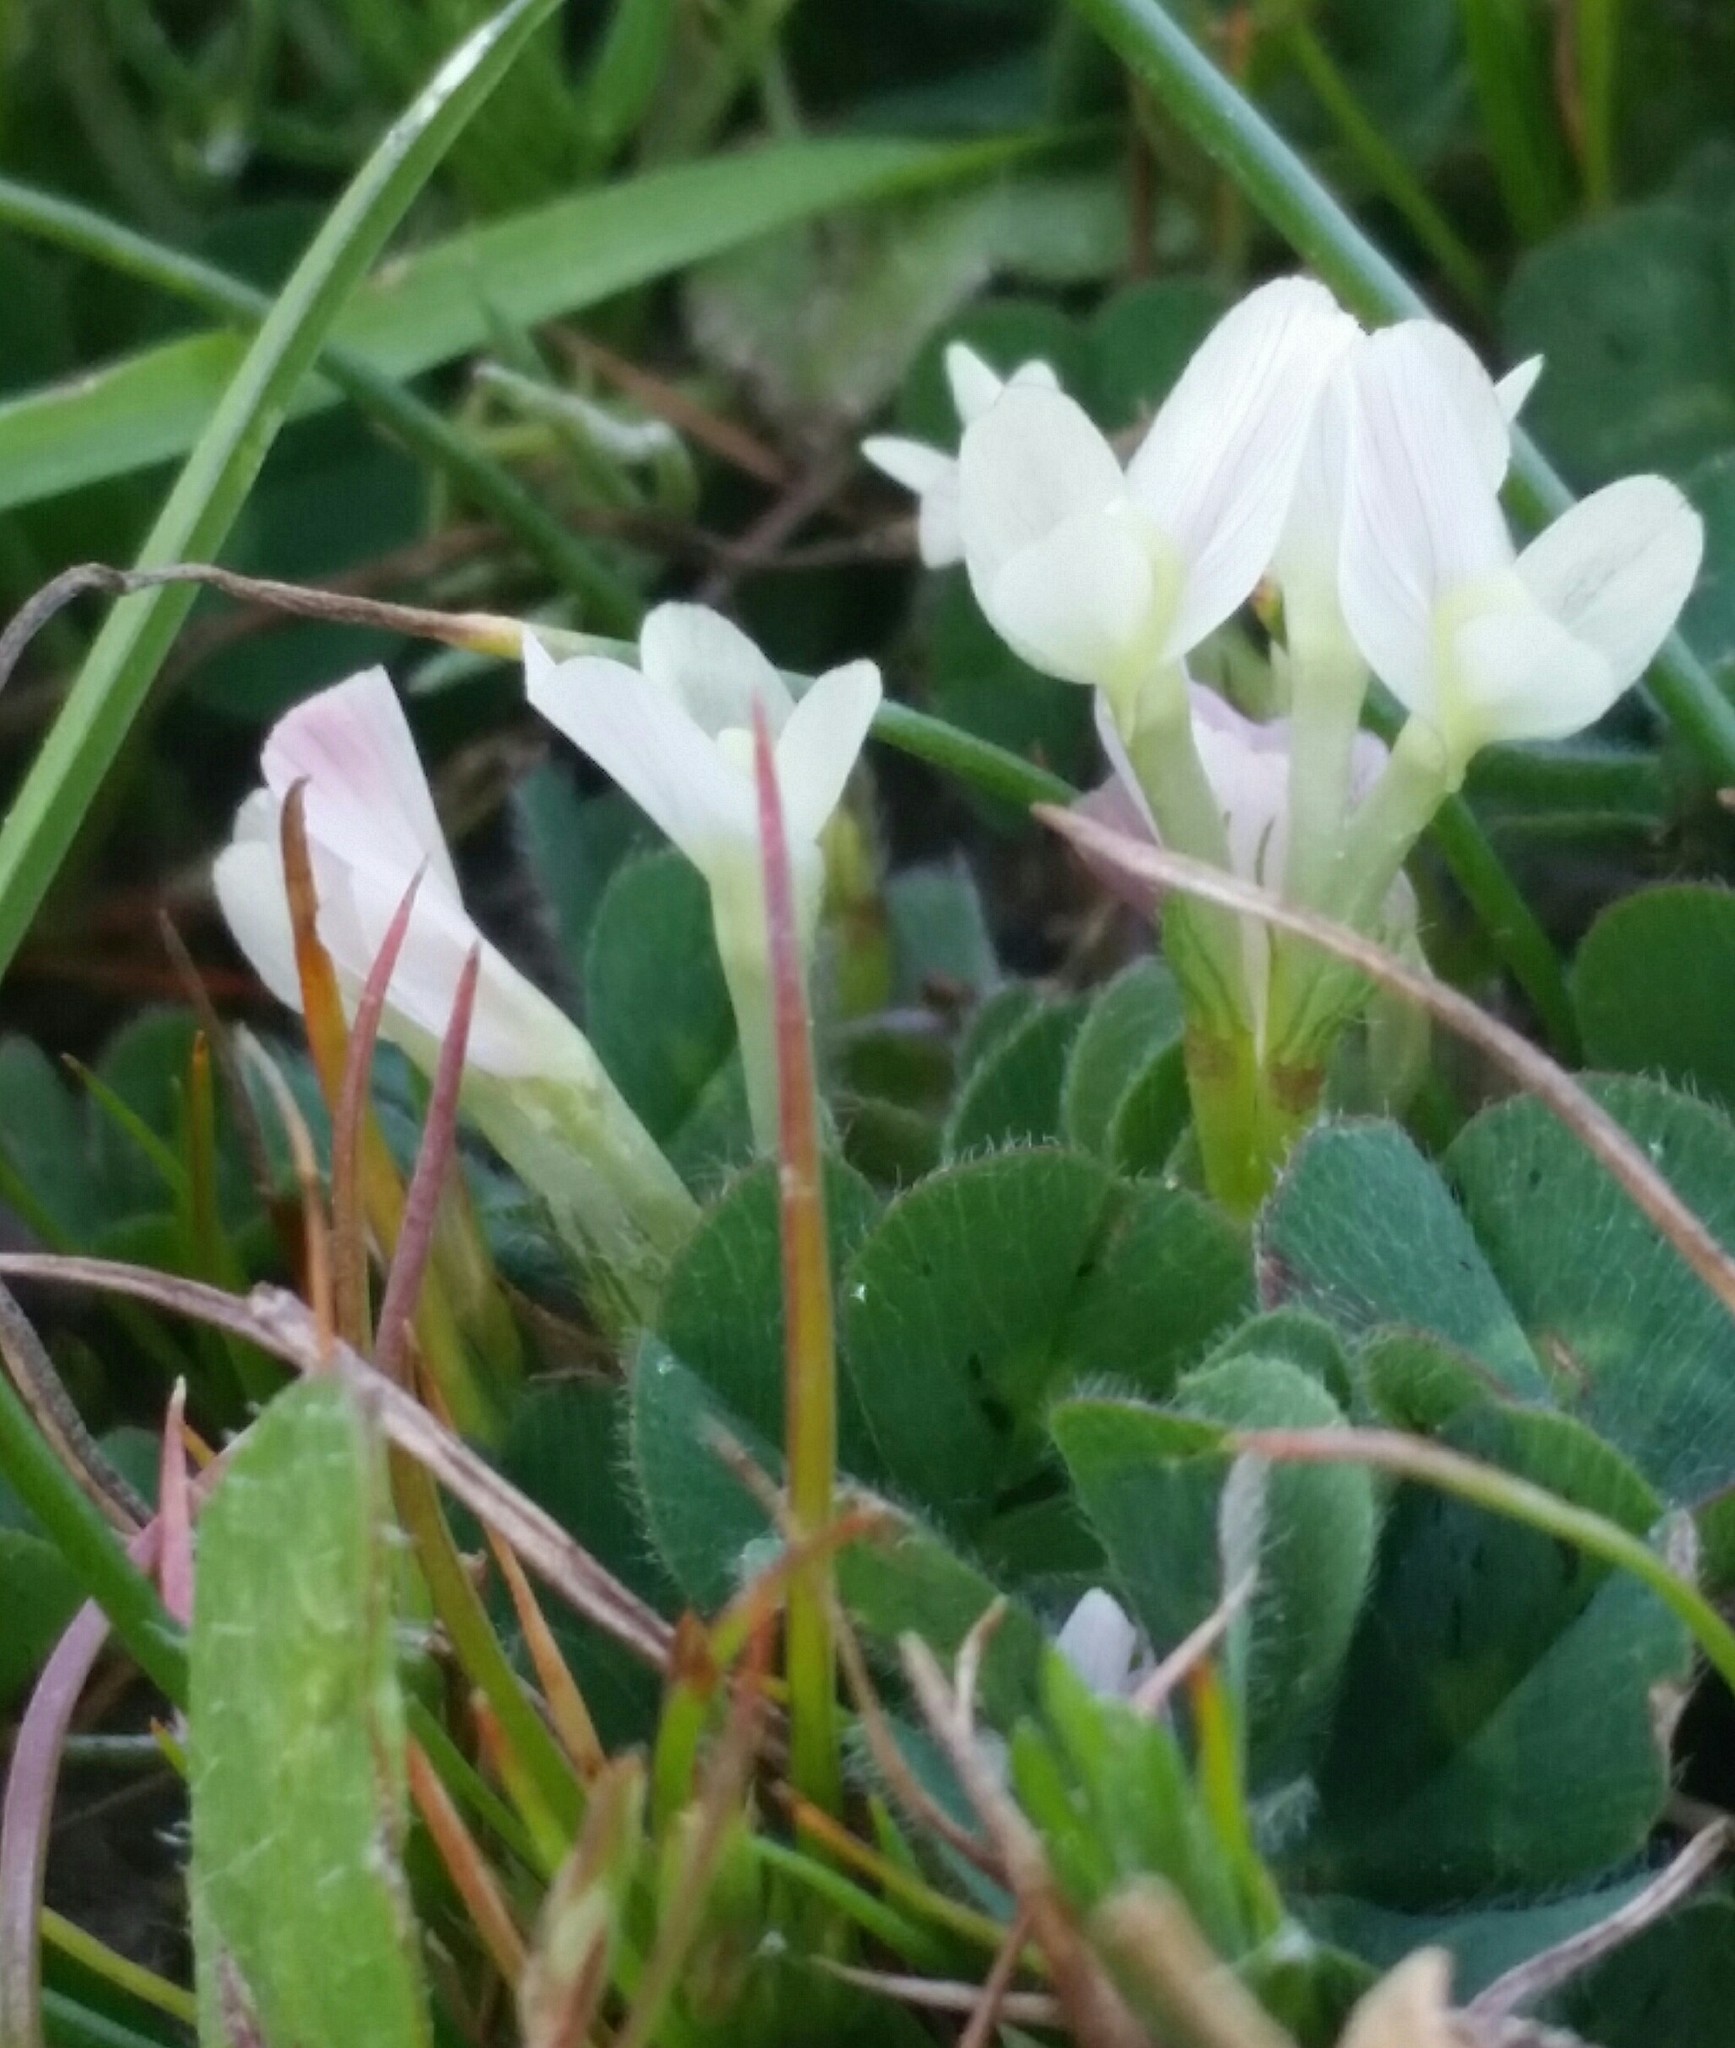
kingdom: Plantae
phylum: Tracheophyta
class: Magnoliopsida
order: Fabales
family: Fabaceae
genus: Trifolium
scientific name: Trifolium subterraneum
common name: Subterranean clover
